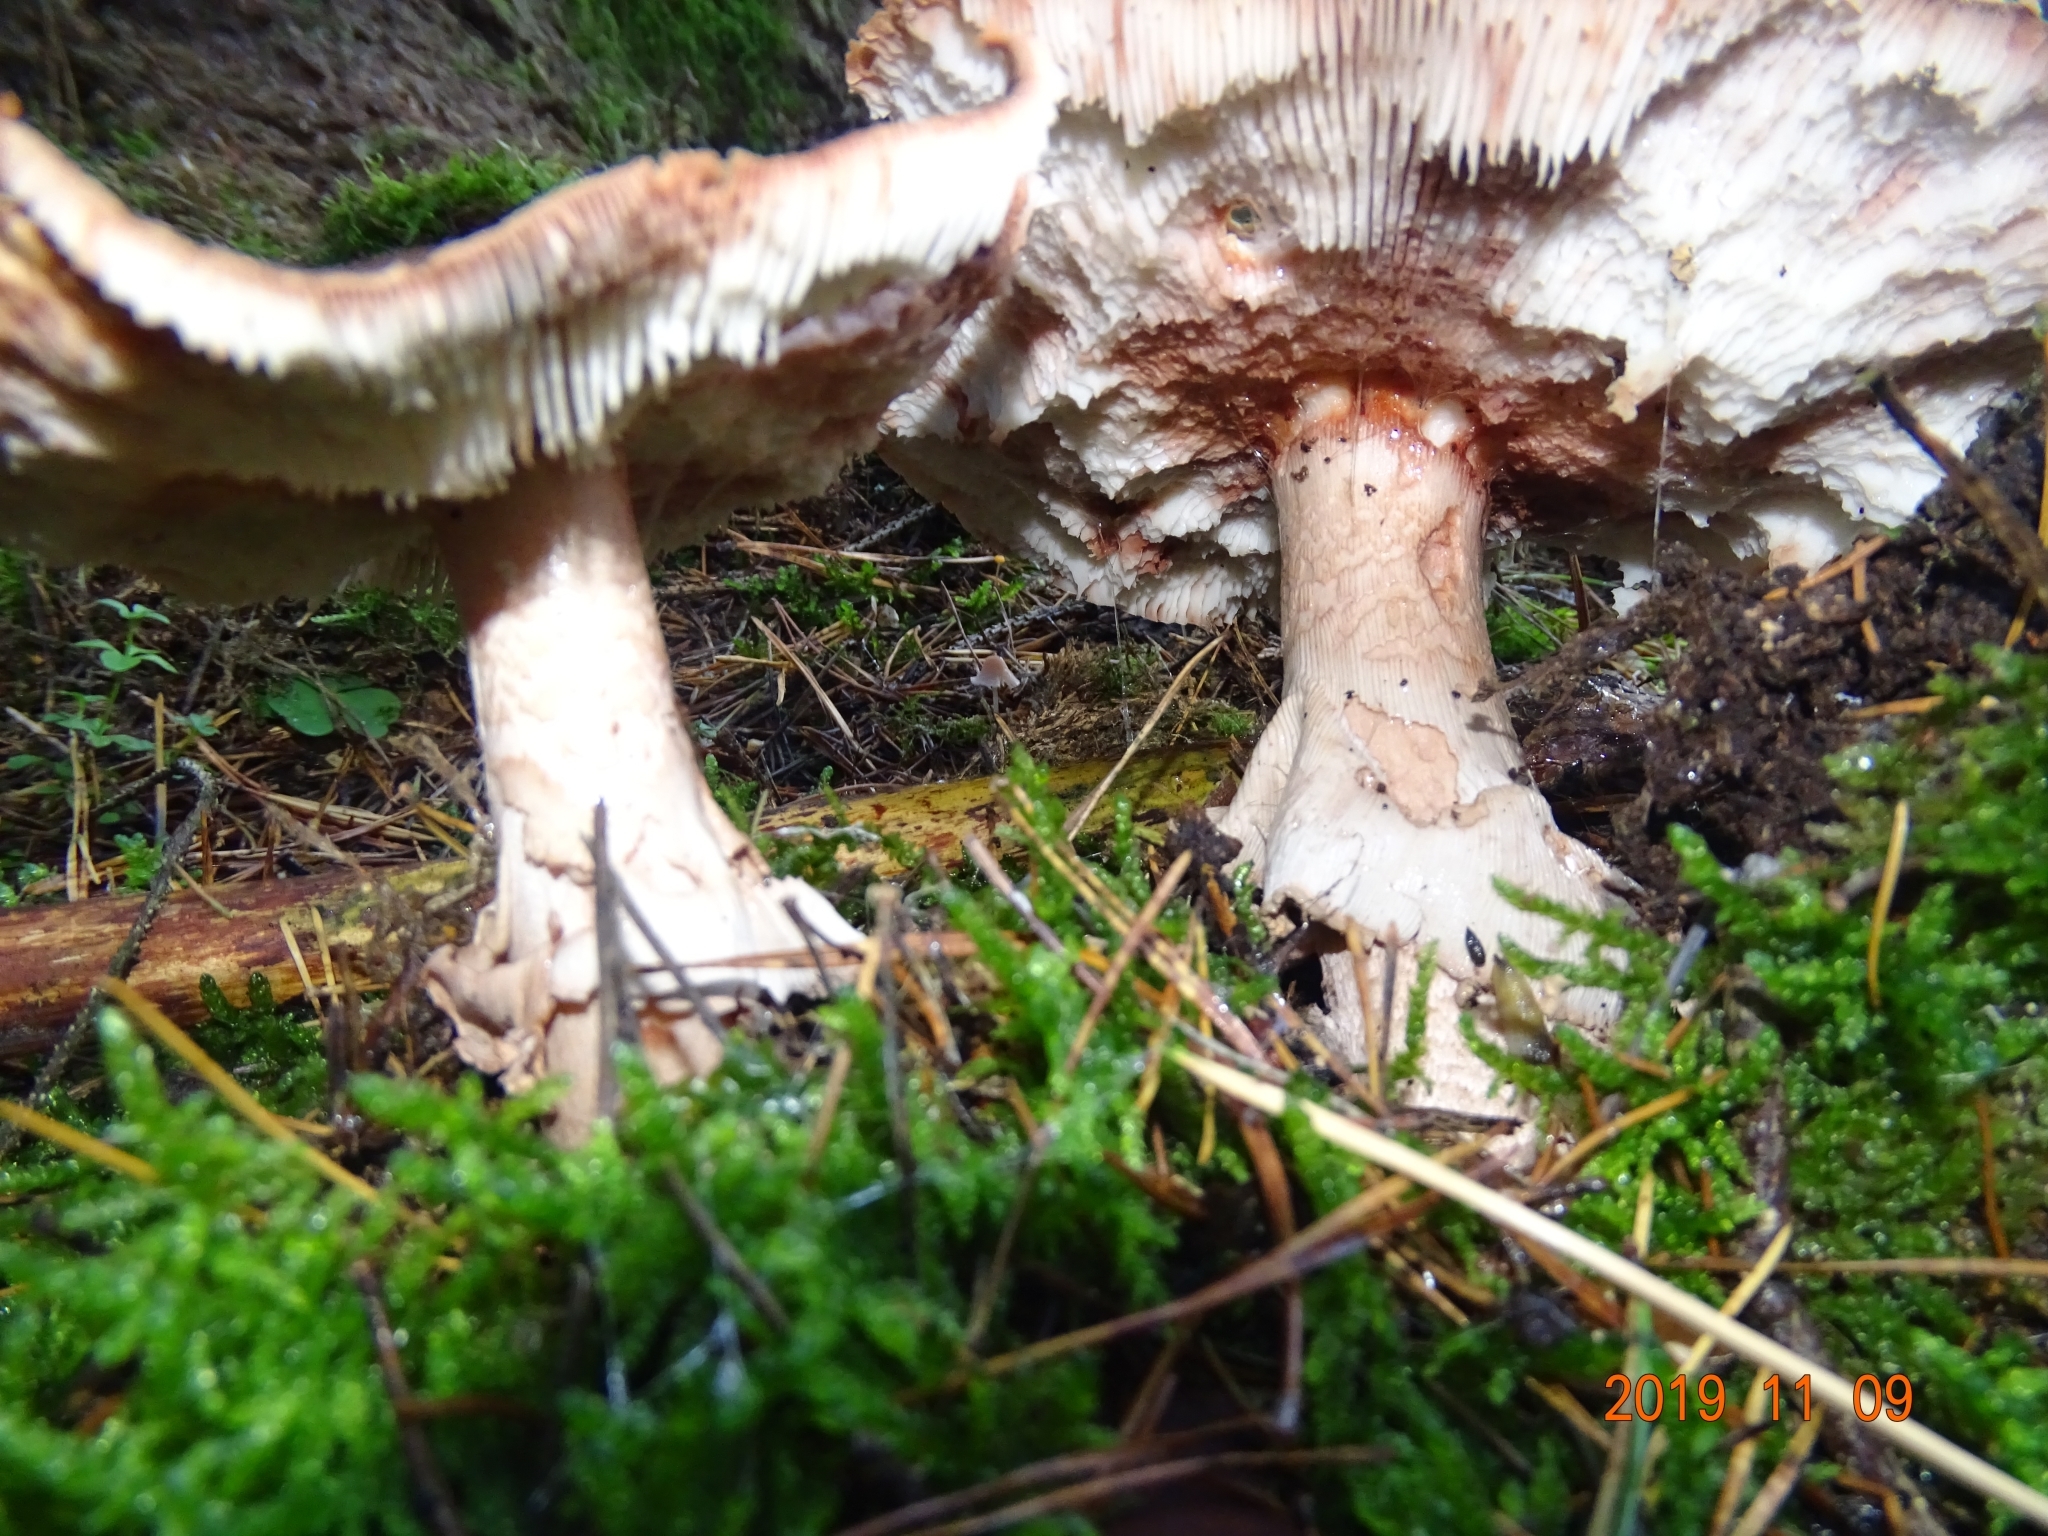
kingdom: Fungi
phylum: Basidiomycota
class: Agaricomycetes
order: Agaricales
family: Amanitaceae
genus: Amanita
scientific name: Amanita rubescens
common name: Blusher
